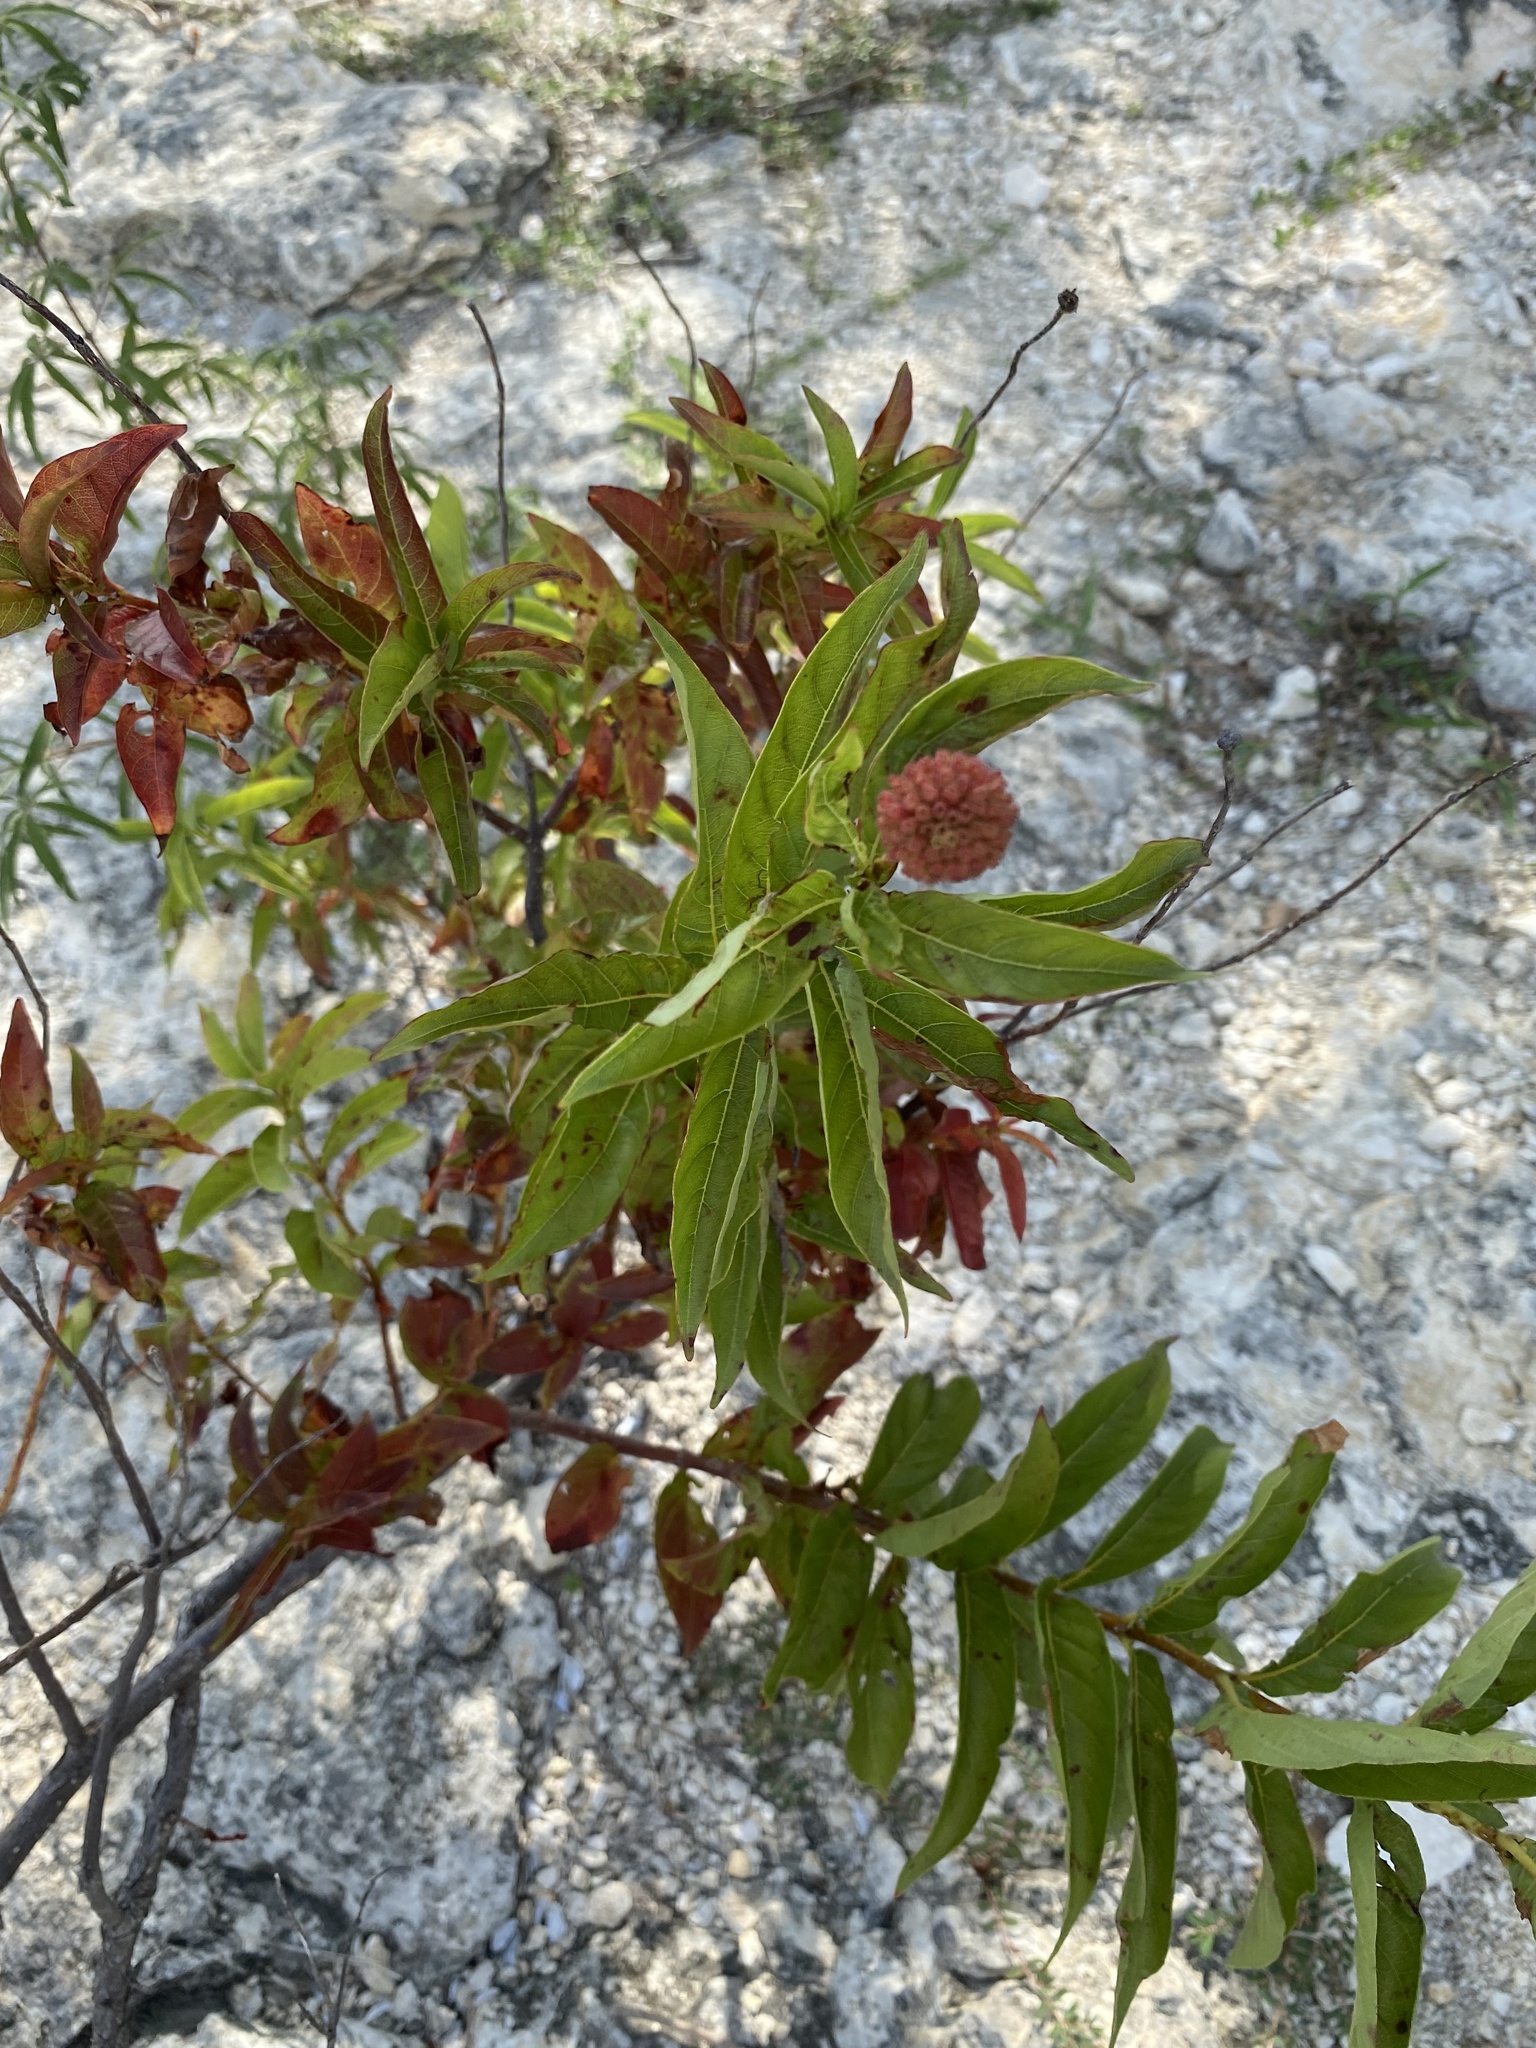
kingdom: Plantae
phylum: Tracheophyta
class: Magnoliopsida
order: Gentianales
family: Rubiaceae
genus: Cephalanthus
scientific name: Cephalanthus occidentalis
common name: Button-willow
